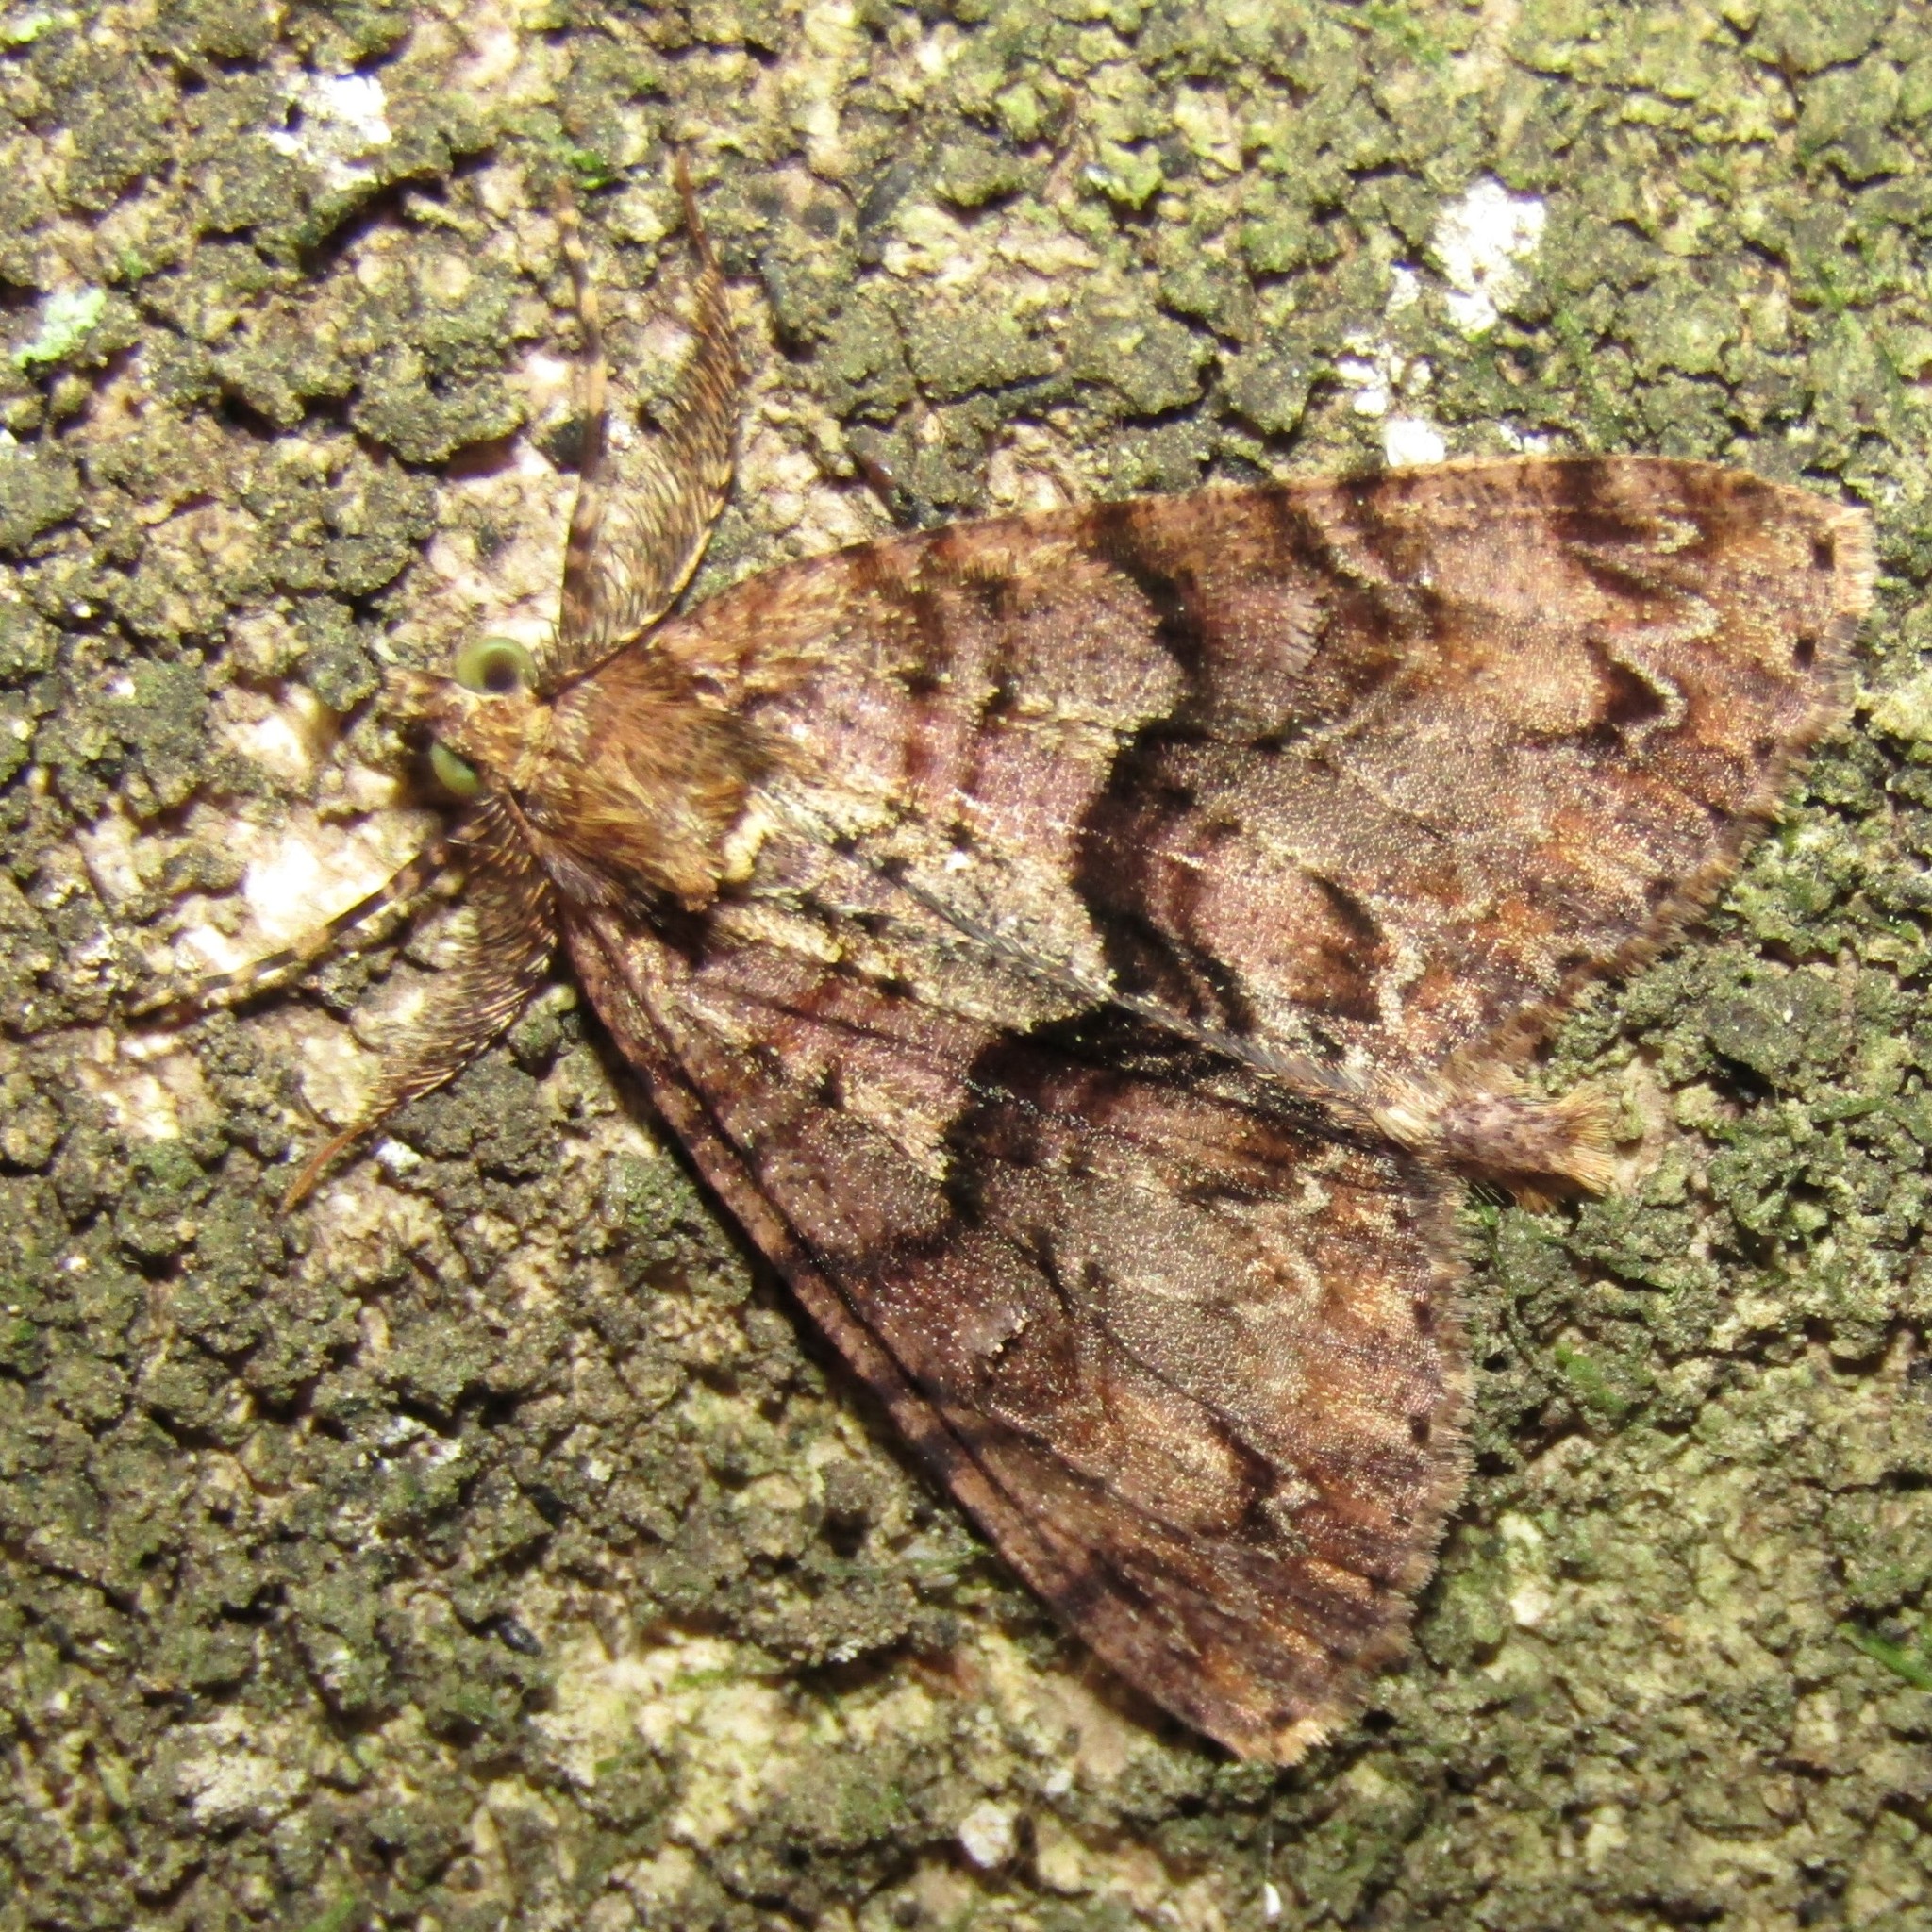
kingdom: Animalia
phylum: Arthropoda
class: Insecta
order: Lepidoptera
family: Geometridae
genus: Pseudocoremia
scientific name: Pseudocoremia suavis
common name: Common forest looper
